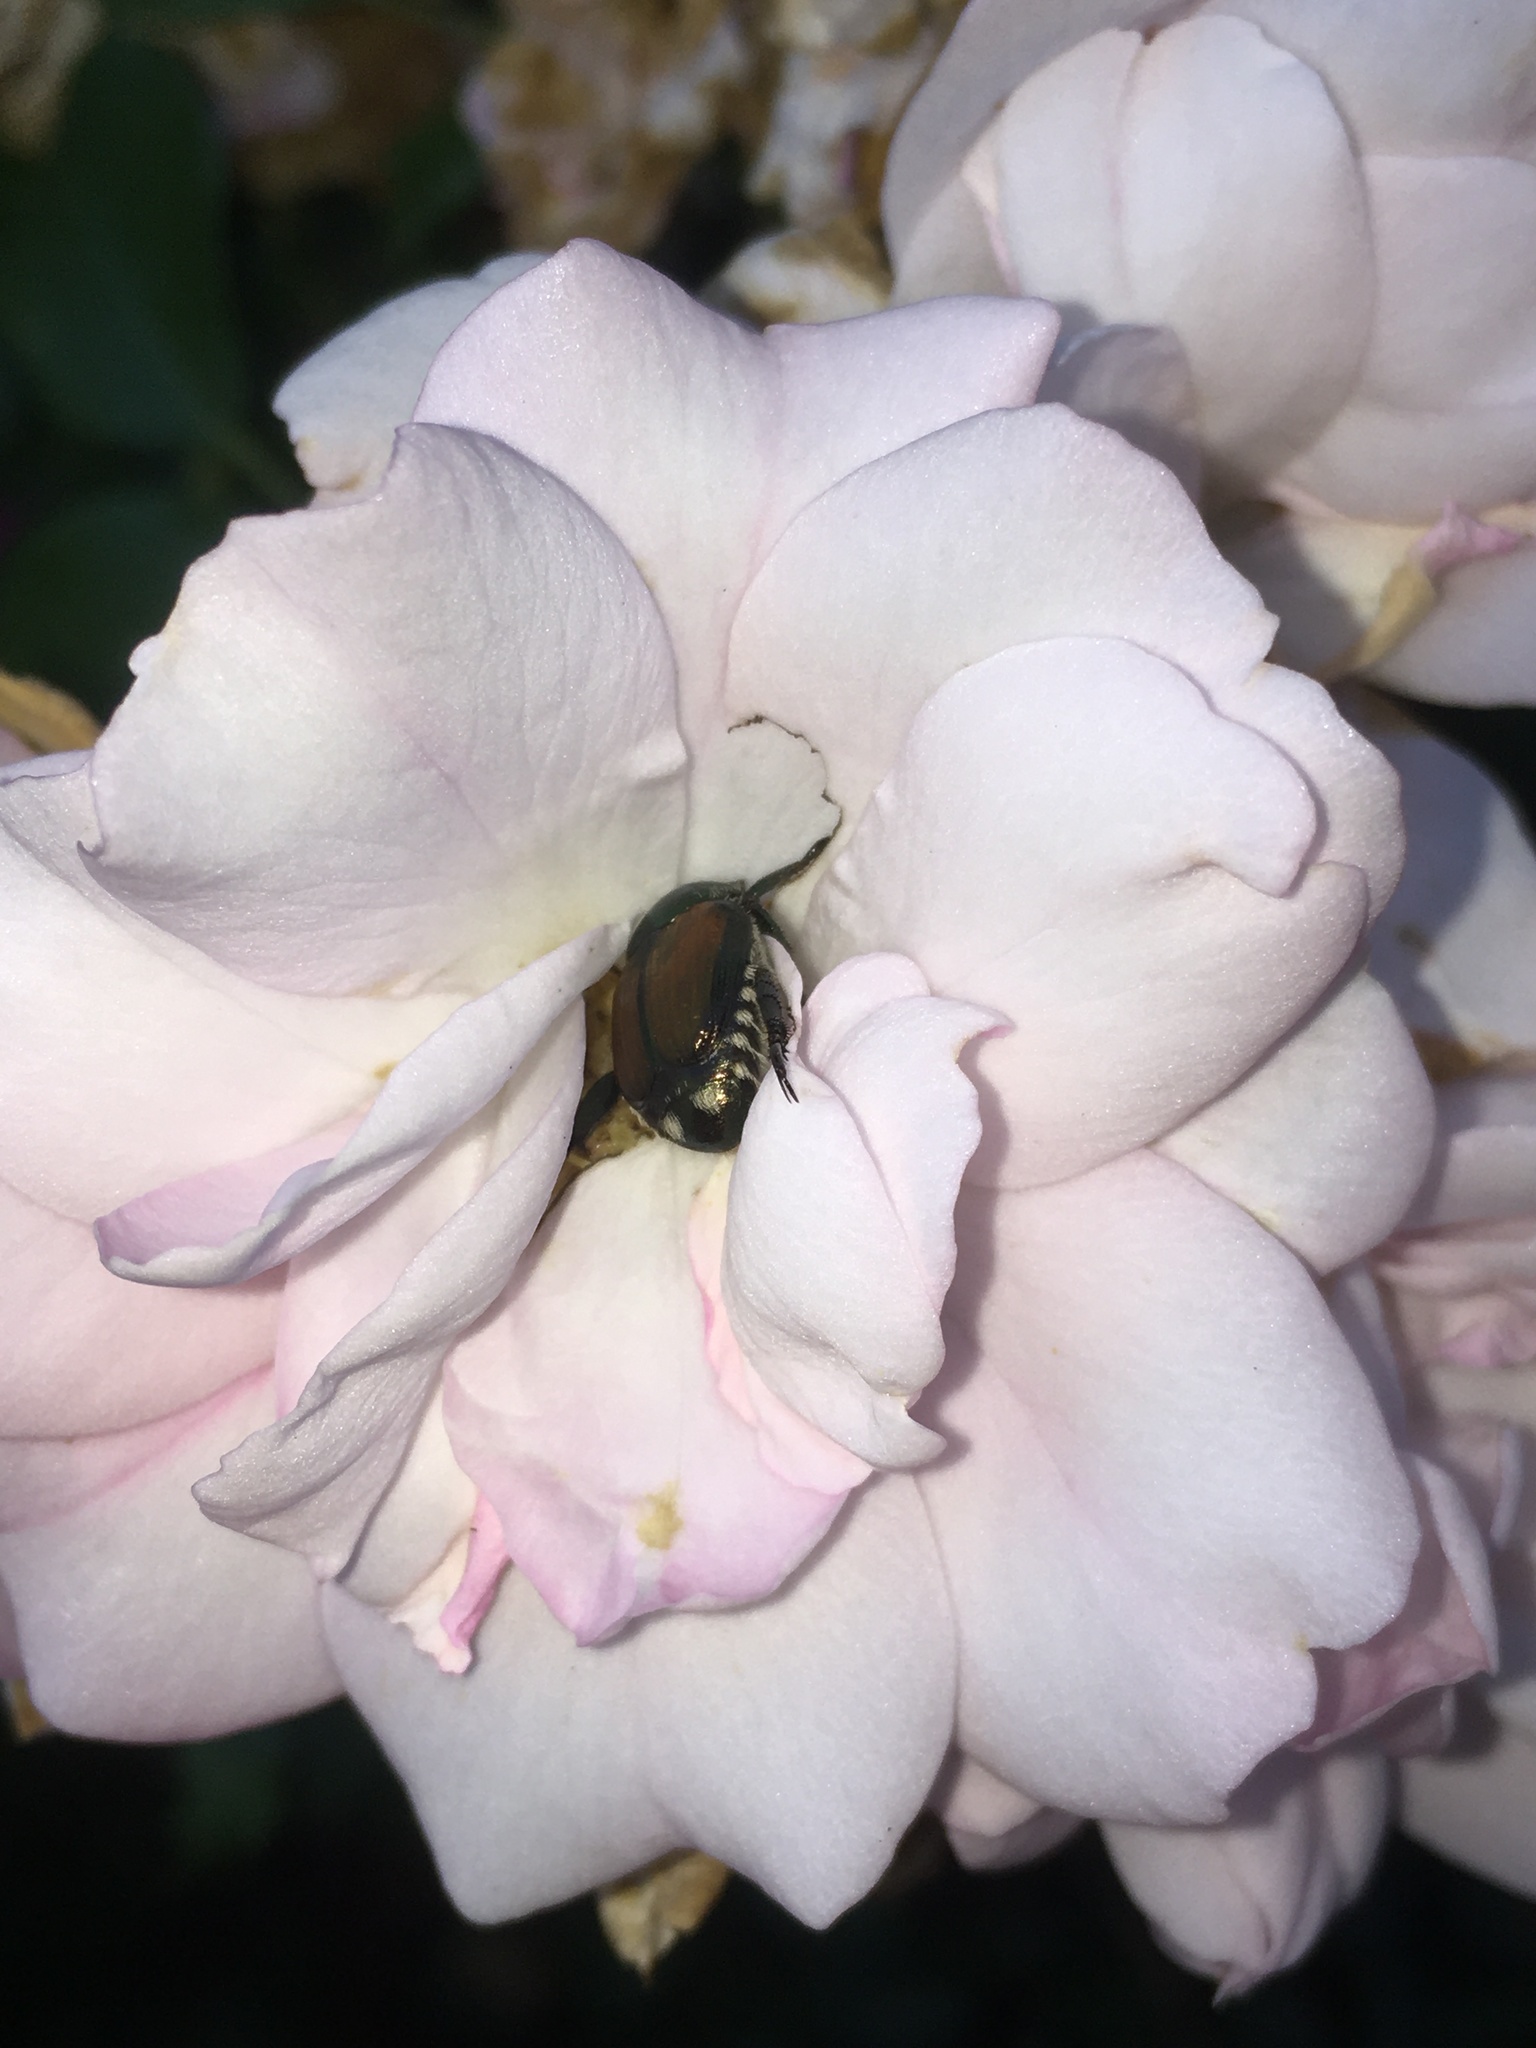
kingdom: Animalia
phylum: Arthropoda
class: Insecta
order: Coleoptera
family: Scarabaeidae
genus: Popillia
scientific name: Popillia japonica
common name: Japanese beetle
